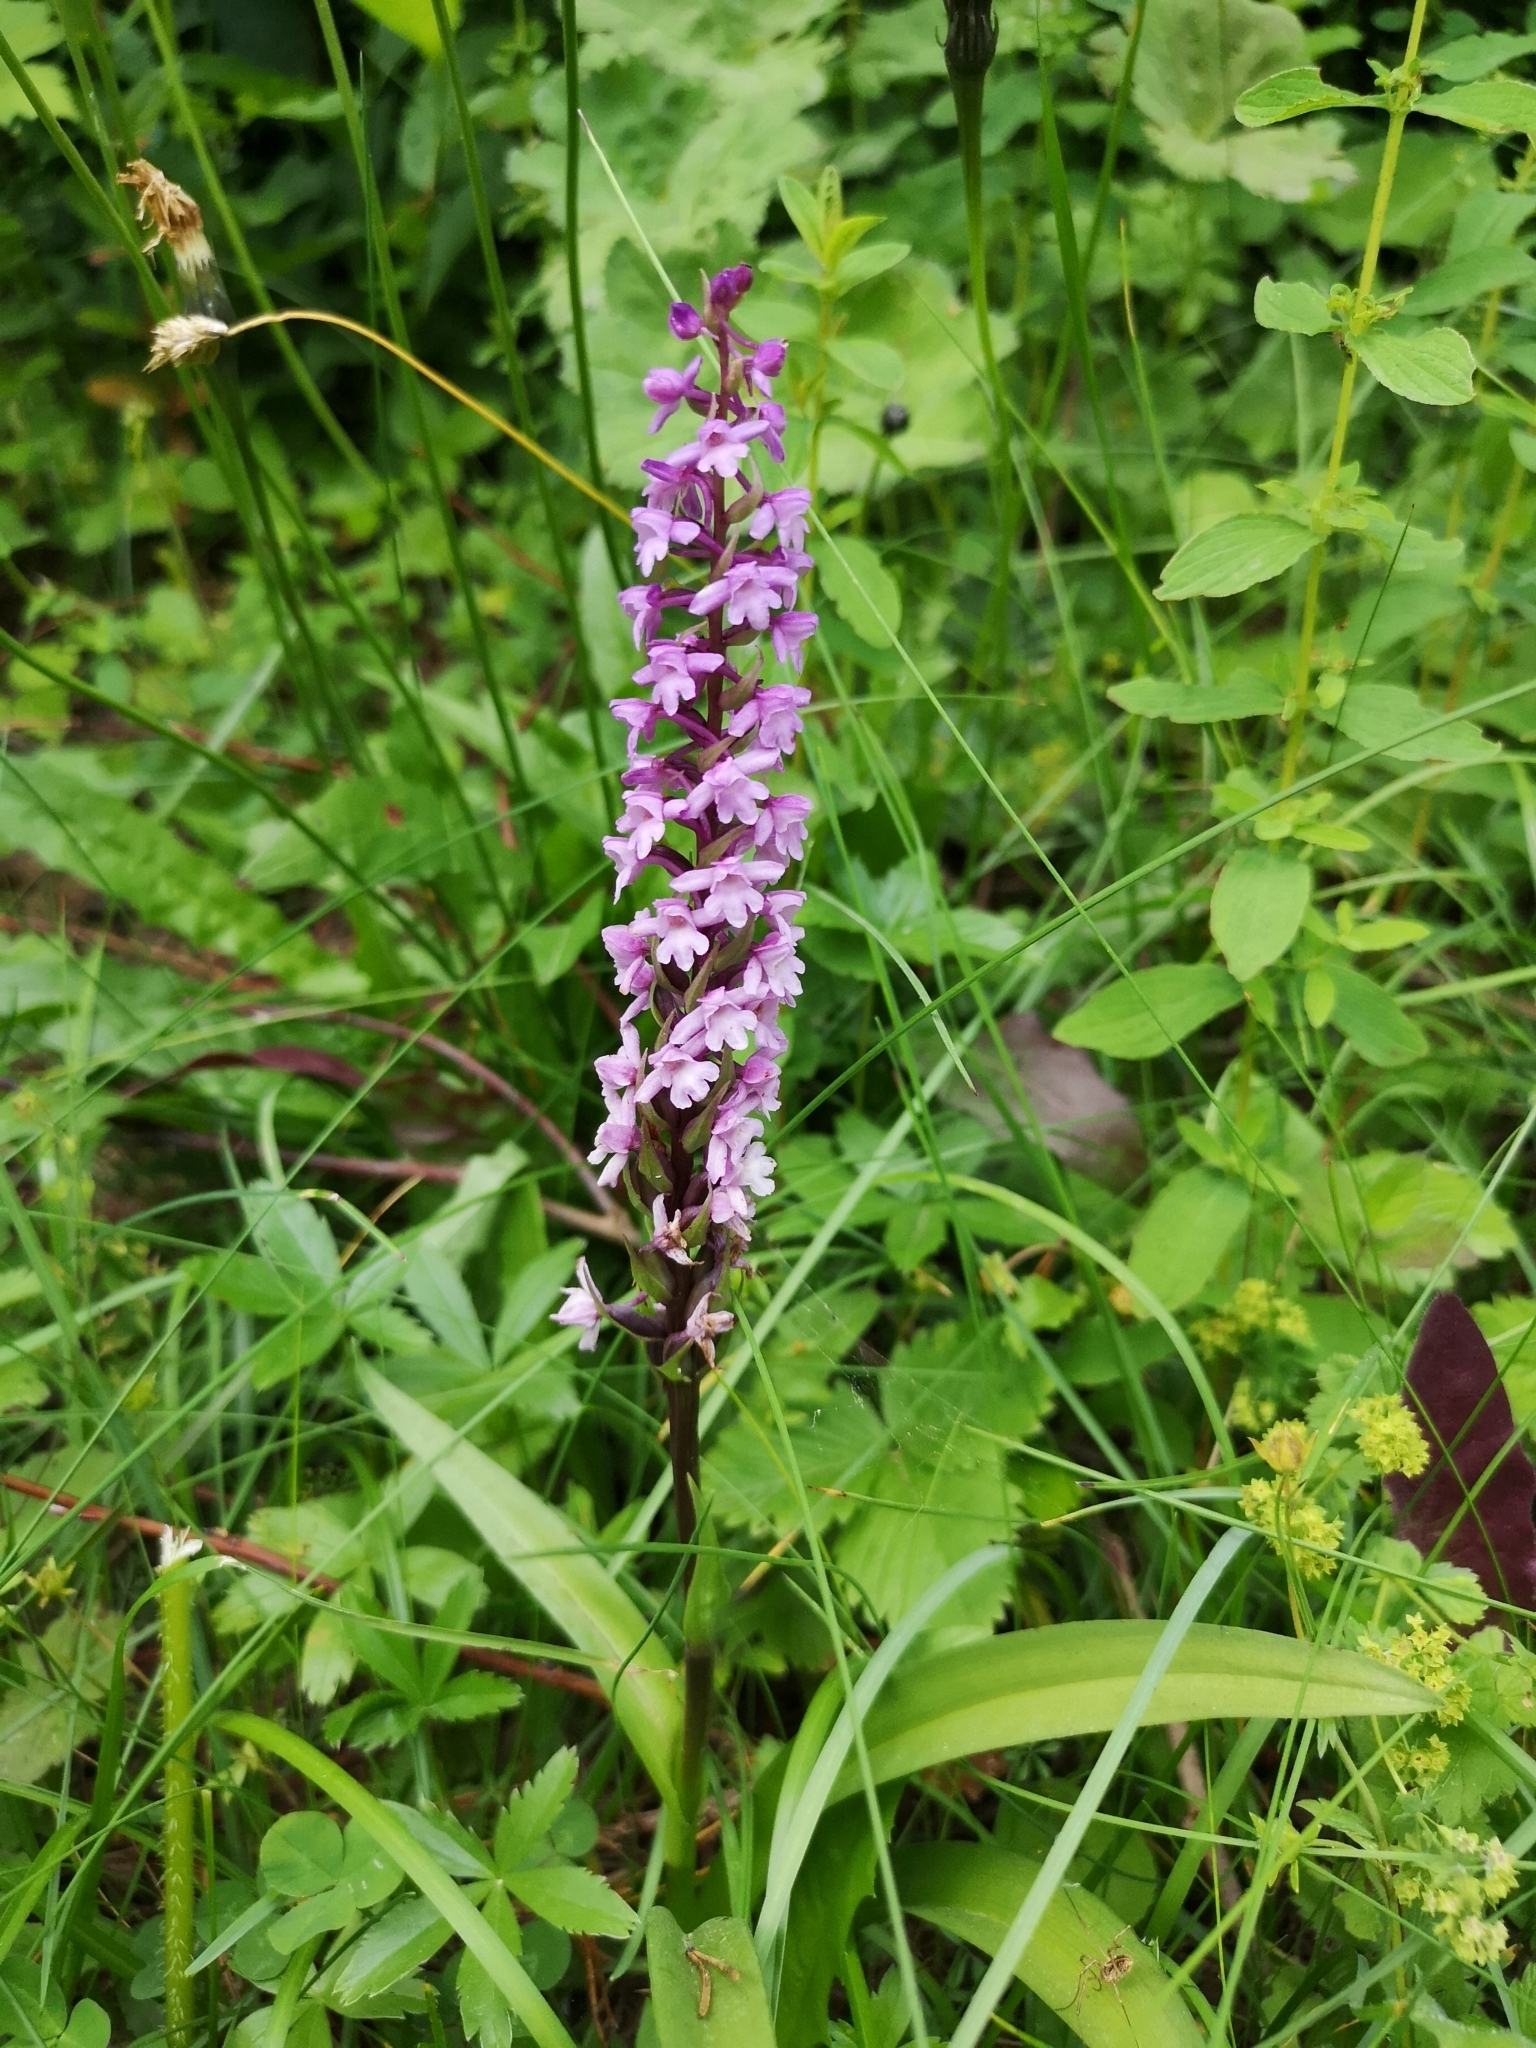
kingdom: Plantae
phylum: Tracheophyta
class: Liliopsida
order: Asparagales
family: Orchidaceae
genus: Gymnadenia
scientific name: Gymnadenia conopsea
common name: Fragrant orchid
